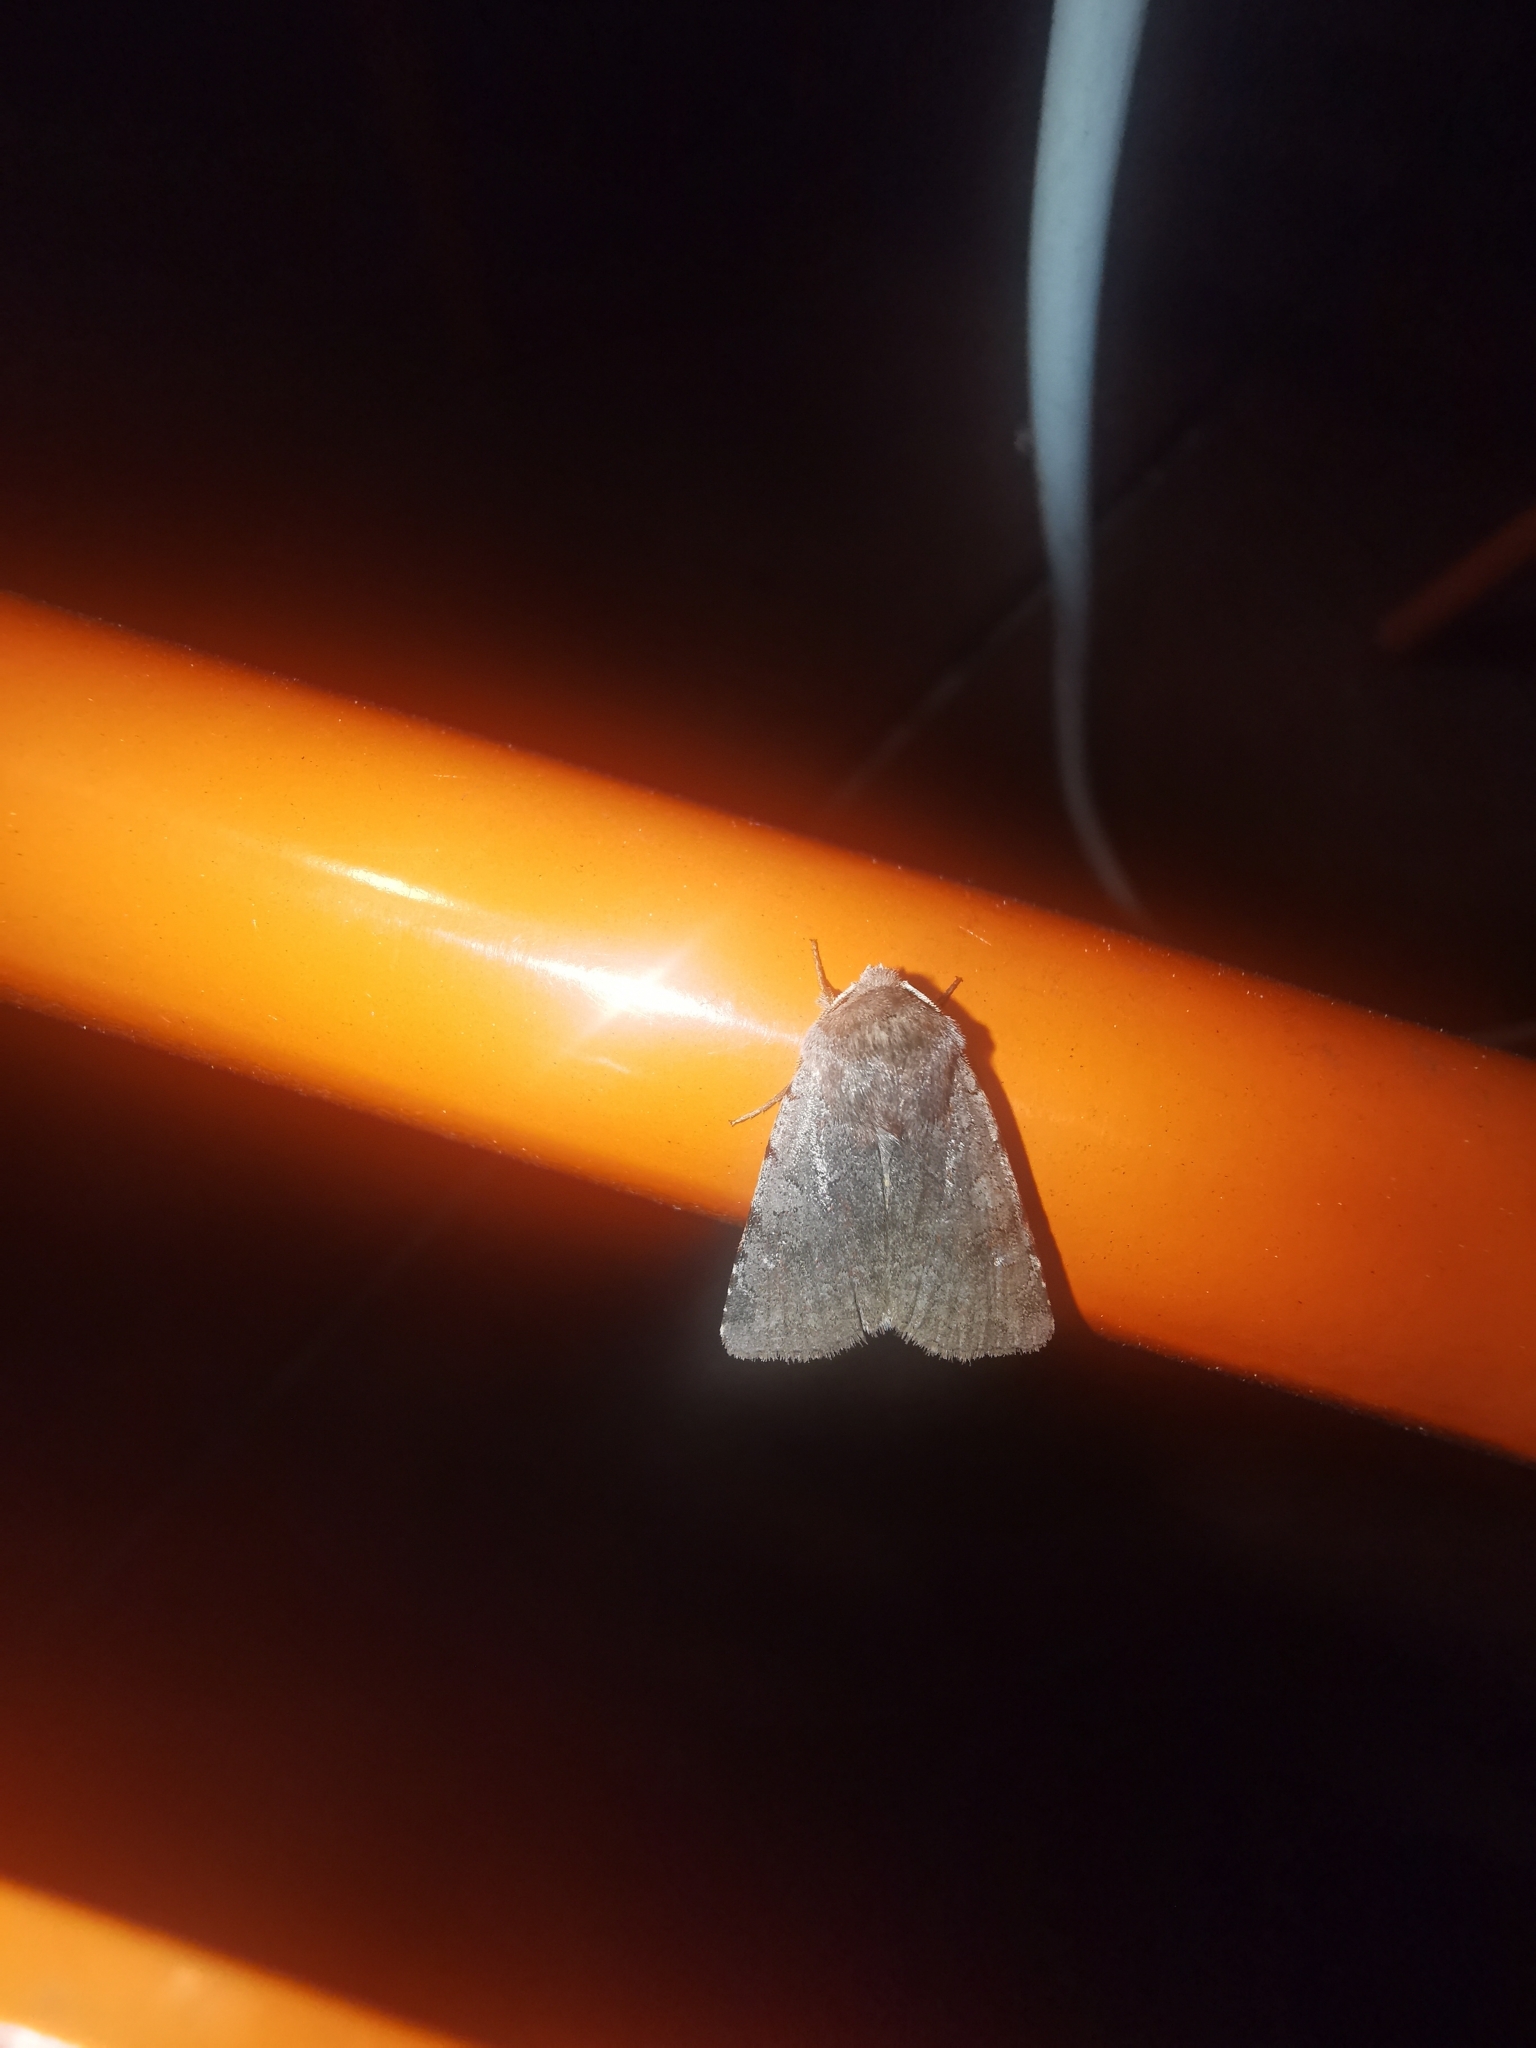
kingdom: Animalia
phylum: Arthropoda
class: Insecta
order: Lepidoptera
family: Noctuidae
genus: Cerastis
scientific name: Cerastis rubricosa
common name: Red chestnut
